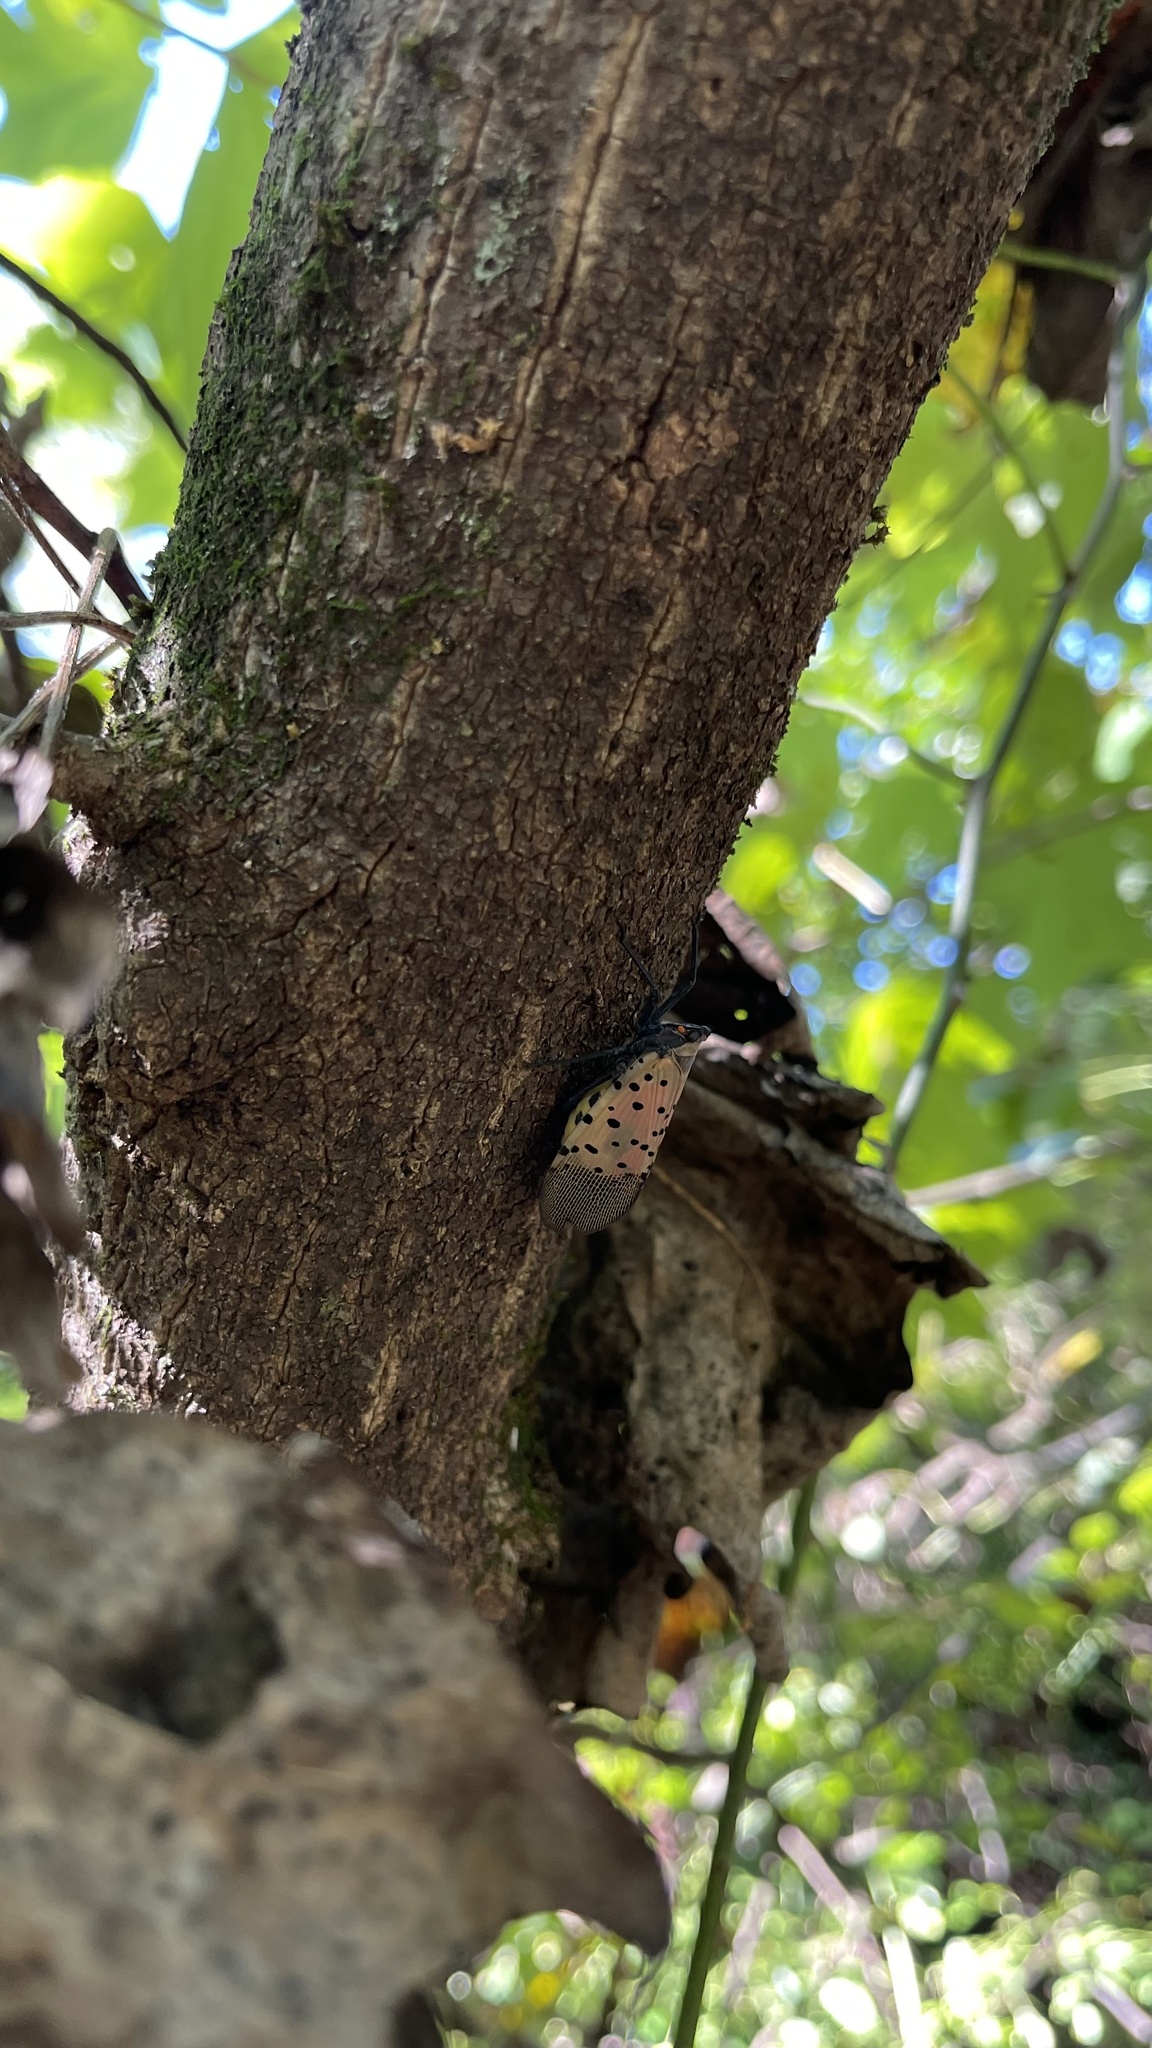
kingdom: Animalia
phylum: Arthropoda
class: Insecta
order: Hemiptera
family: Fulgoridae
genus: Lycorma
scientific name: Lycorma delicatula
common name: Spotted lanternfly
